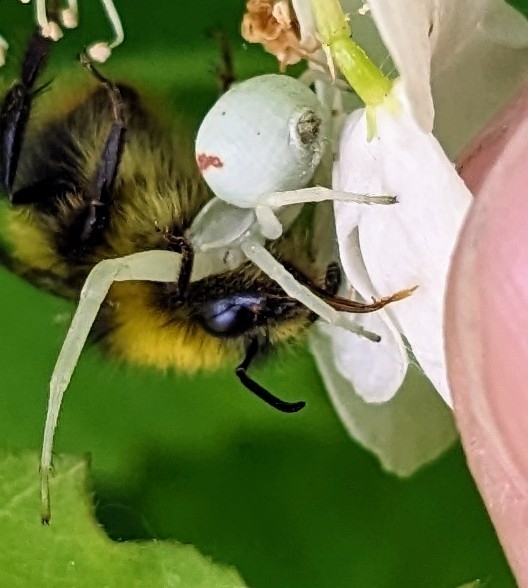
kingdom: Animalia
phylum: Arthropoda
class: Arachnida
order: Araneae
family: Thomisidae
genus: Misumena
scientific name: Misumena vatia
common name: Goldenrod crab spider
